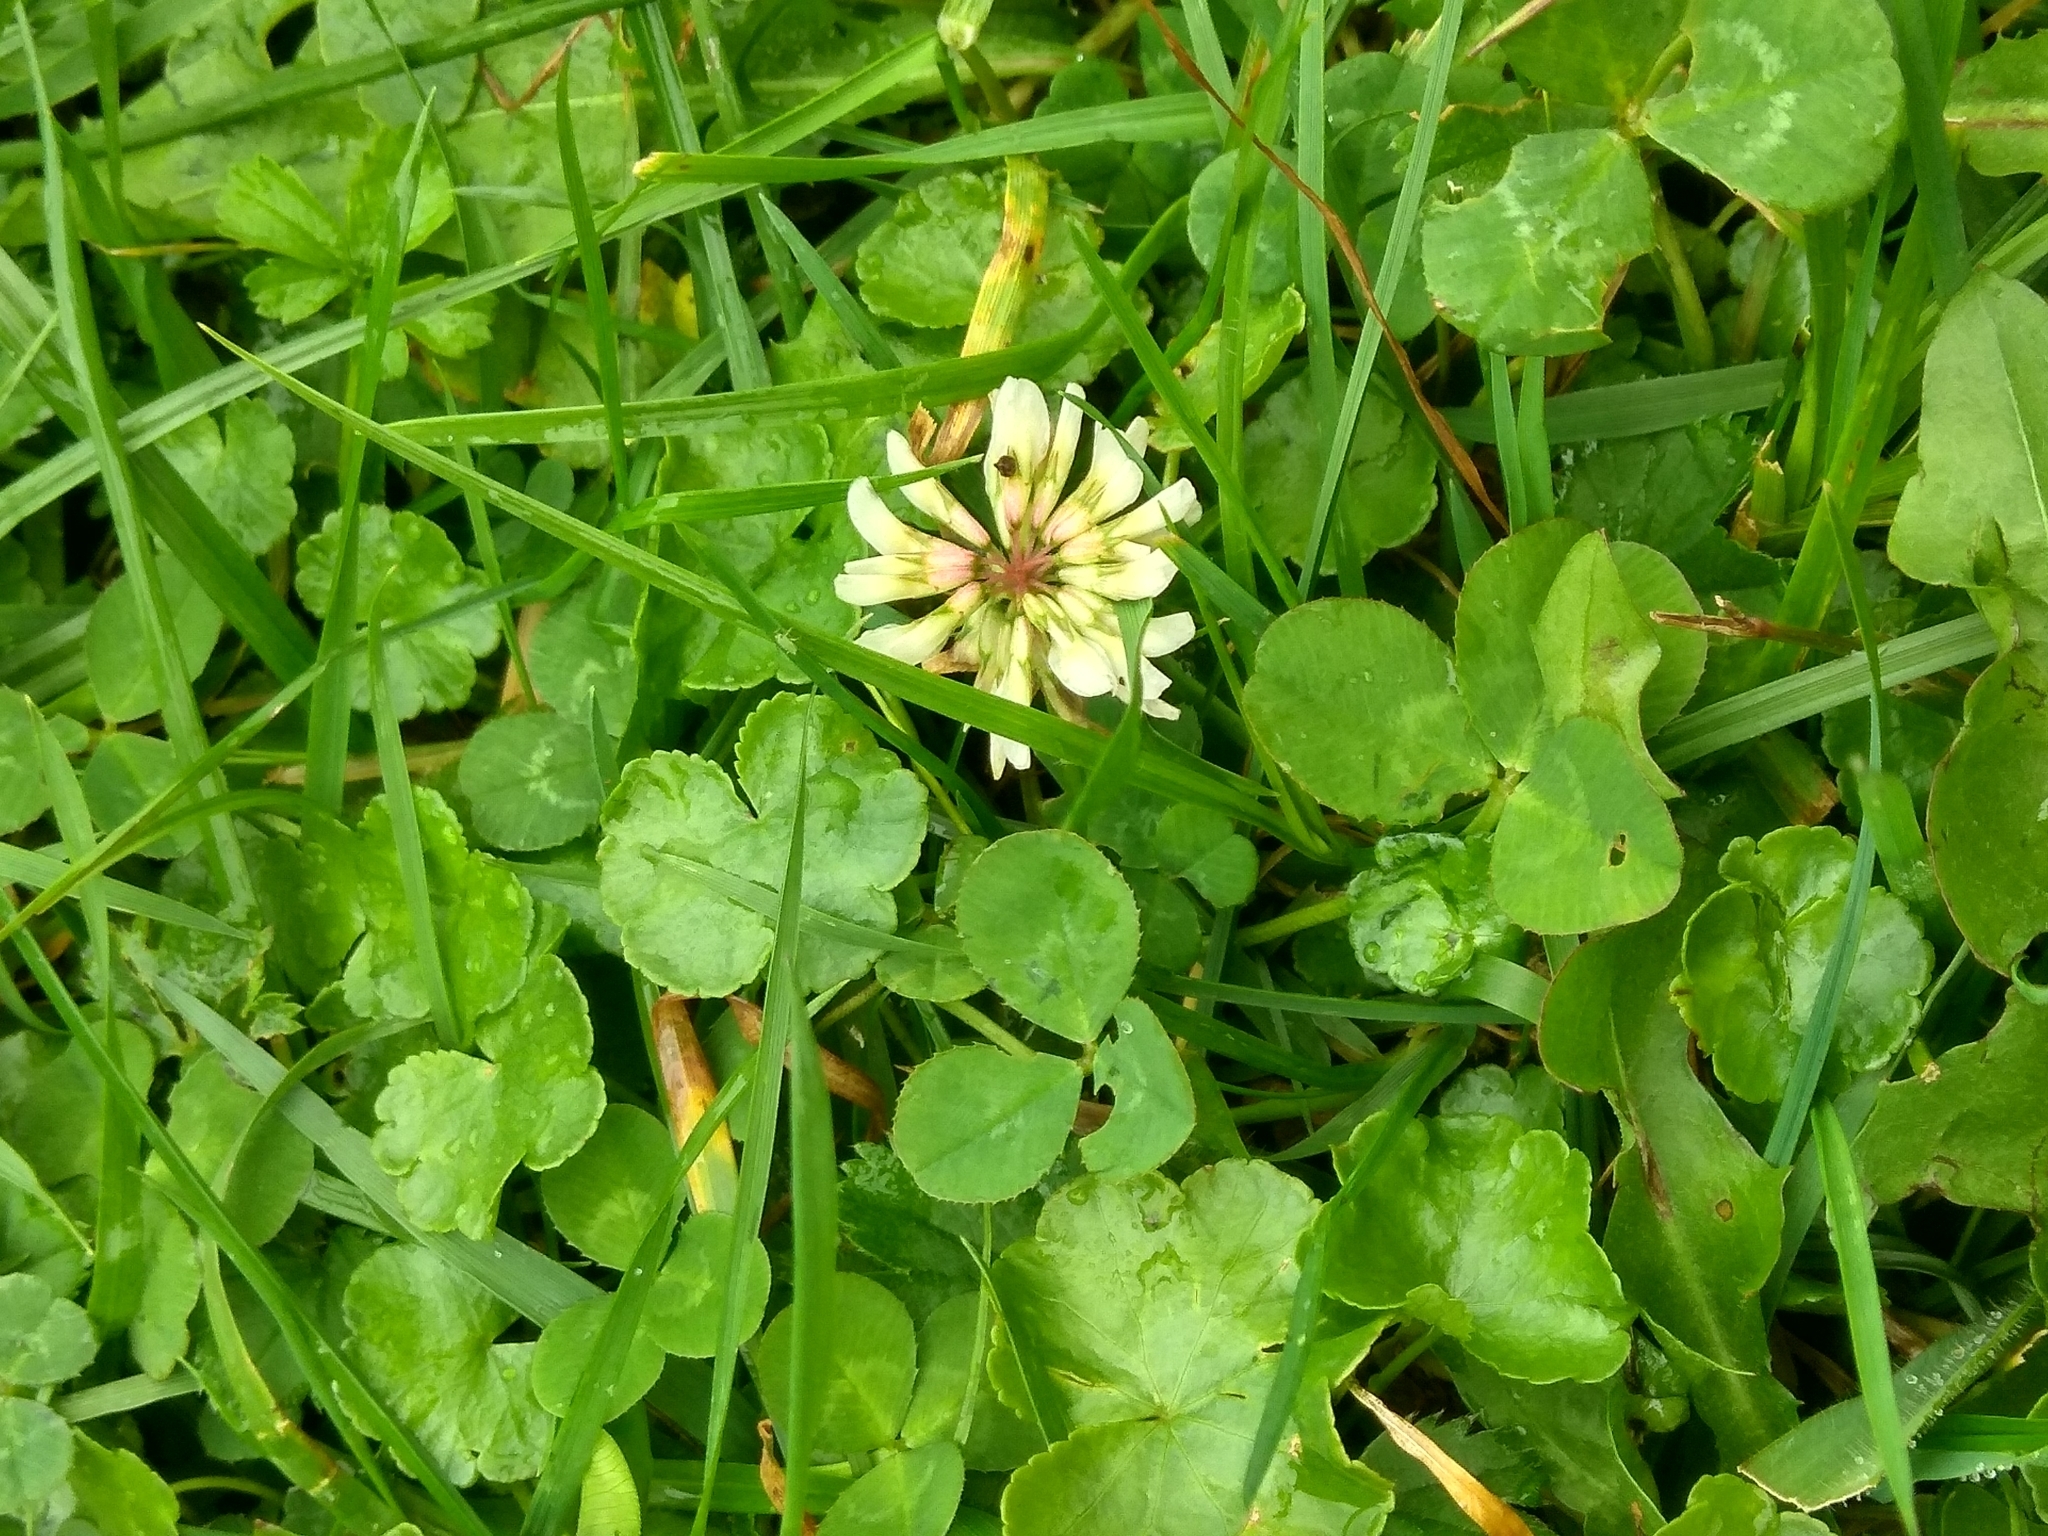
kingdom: Plantae
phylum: Tracheophyta
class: Magnoliopsida
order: Fabales
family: Fabaceae
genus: Trifolium
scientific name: Trifolium repens
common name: White clover
